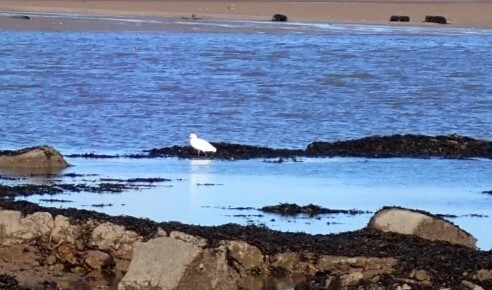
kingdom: Animalia
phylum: Chordata
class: Aves
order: Pelecaniformes
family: Ardeidae
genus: Egretta
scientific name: Egretta garzetta
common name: Little egret
